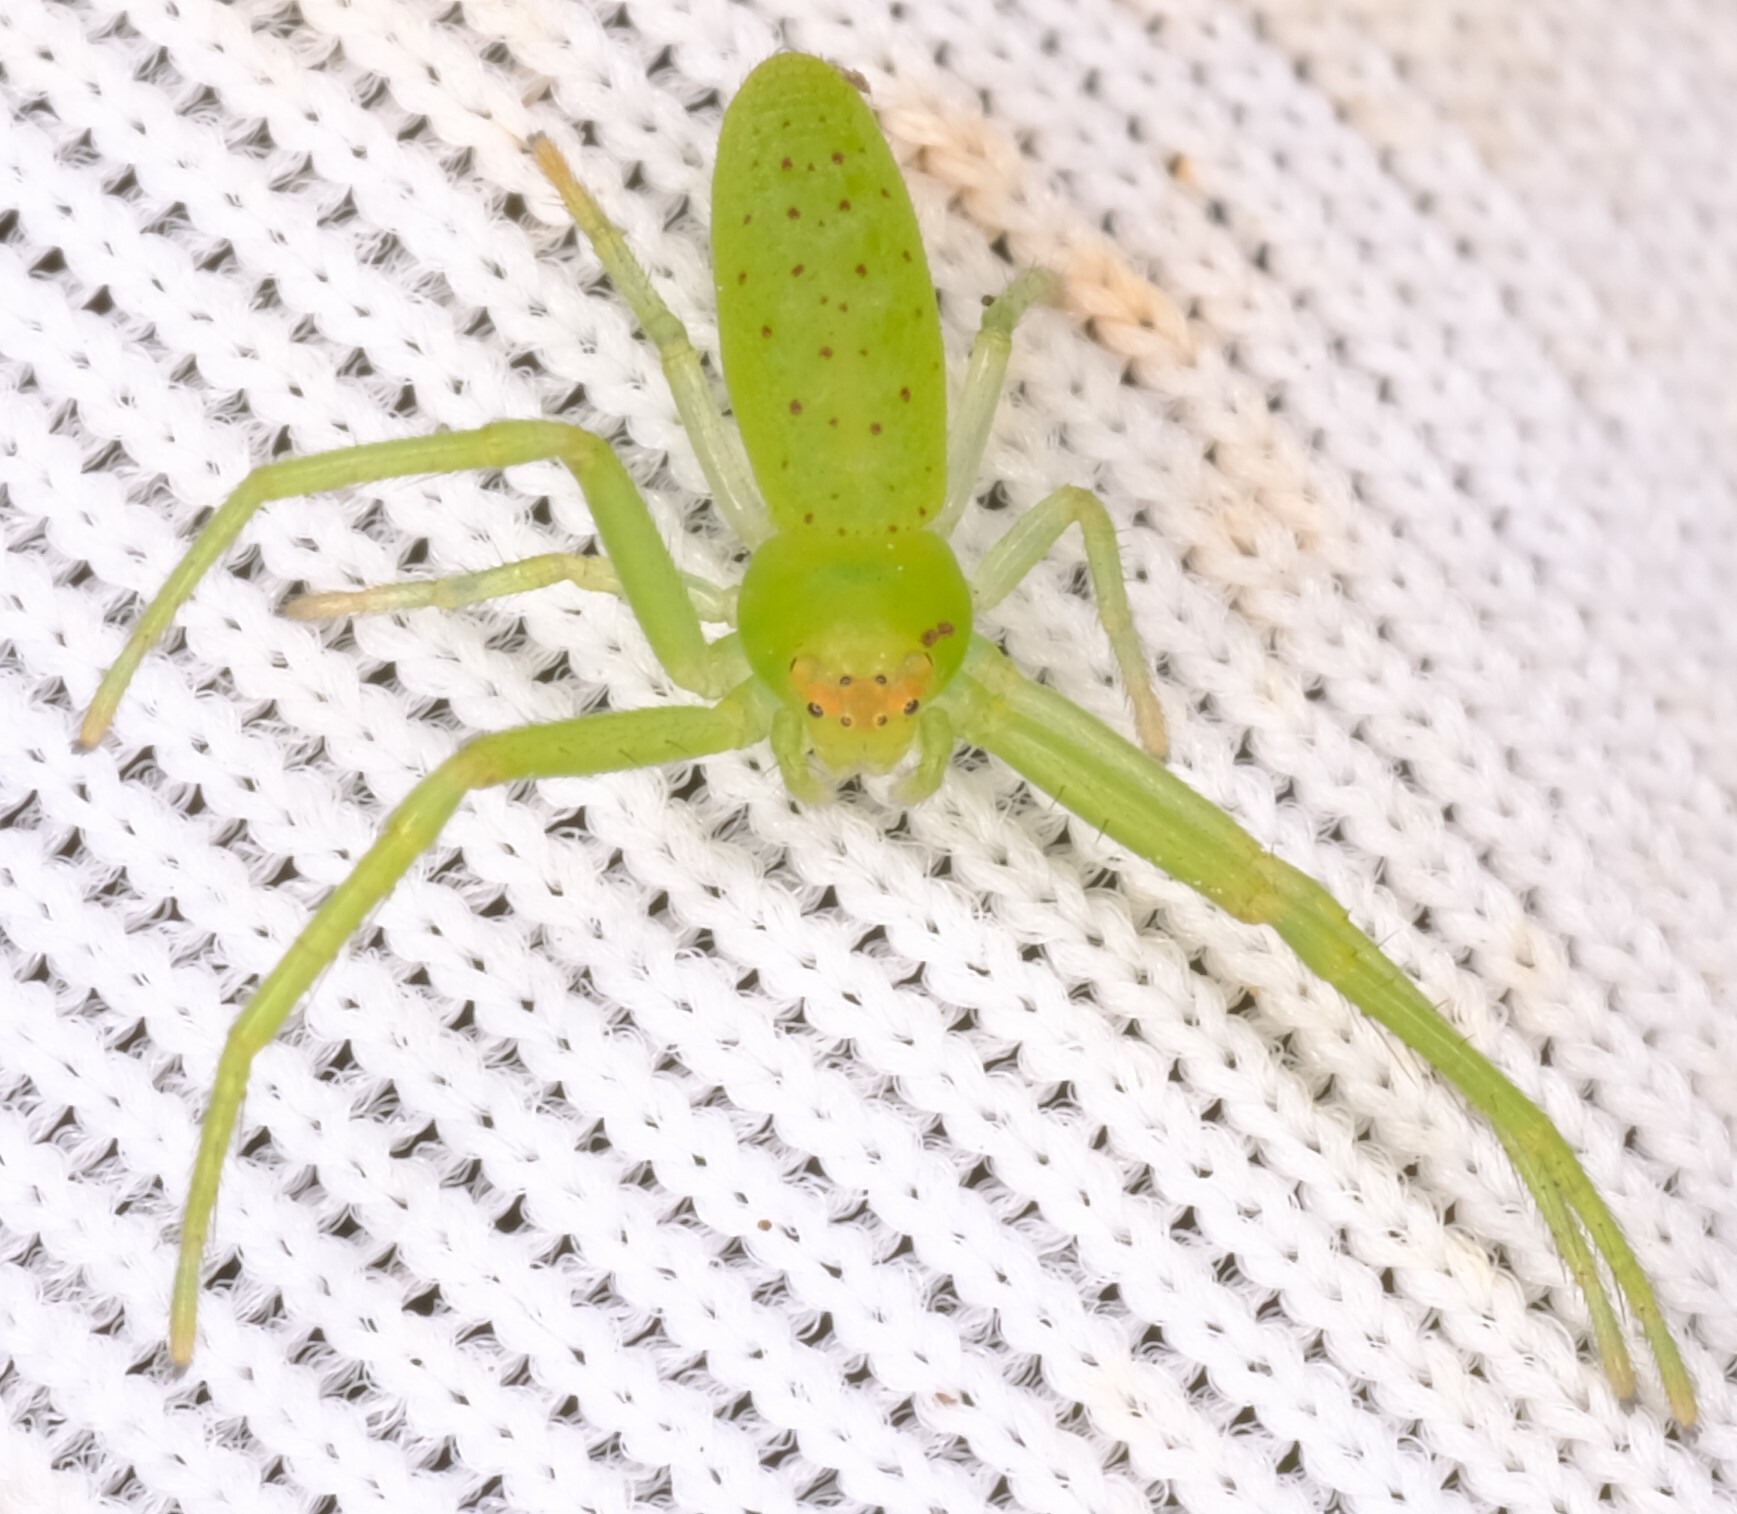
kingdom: Animalia
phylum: Arthropoda
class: Arachnida
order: Araneae
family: Thomisidae
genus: Cetratus
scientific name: Cetratus rubropunctatus
